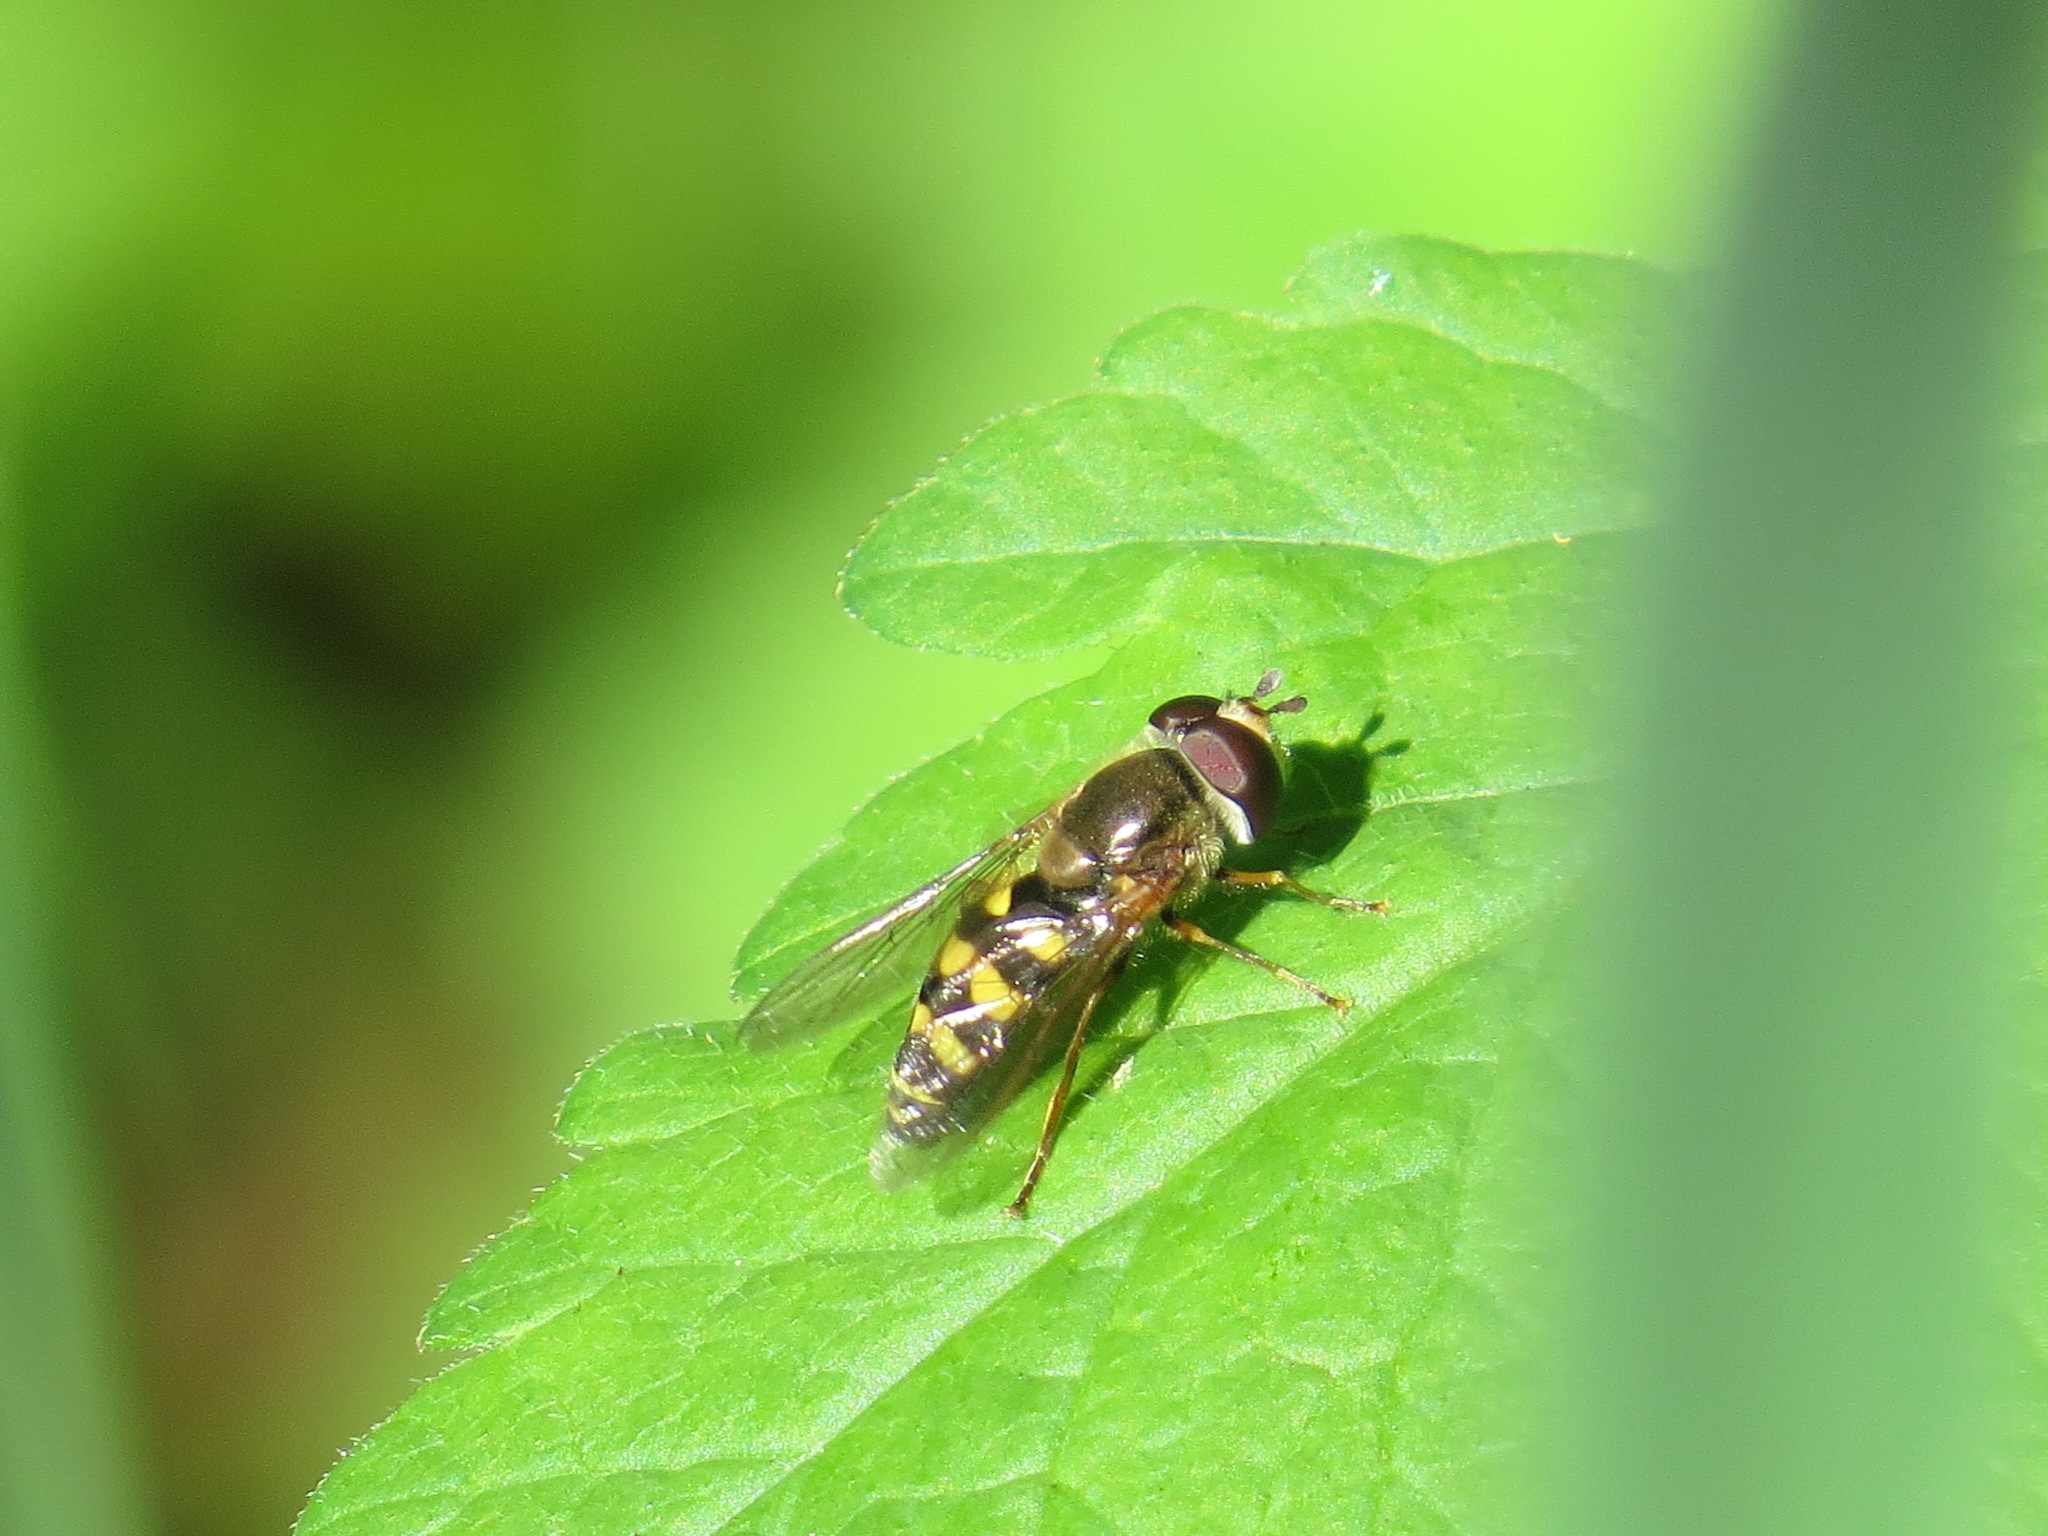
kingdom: Animalia
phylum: Arthropoda
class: Insecta
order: Diptera
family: Syrphidae
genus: Eupeodes
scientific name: Eupeodes fumipennis
